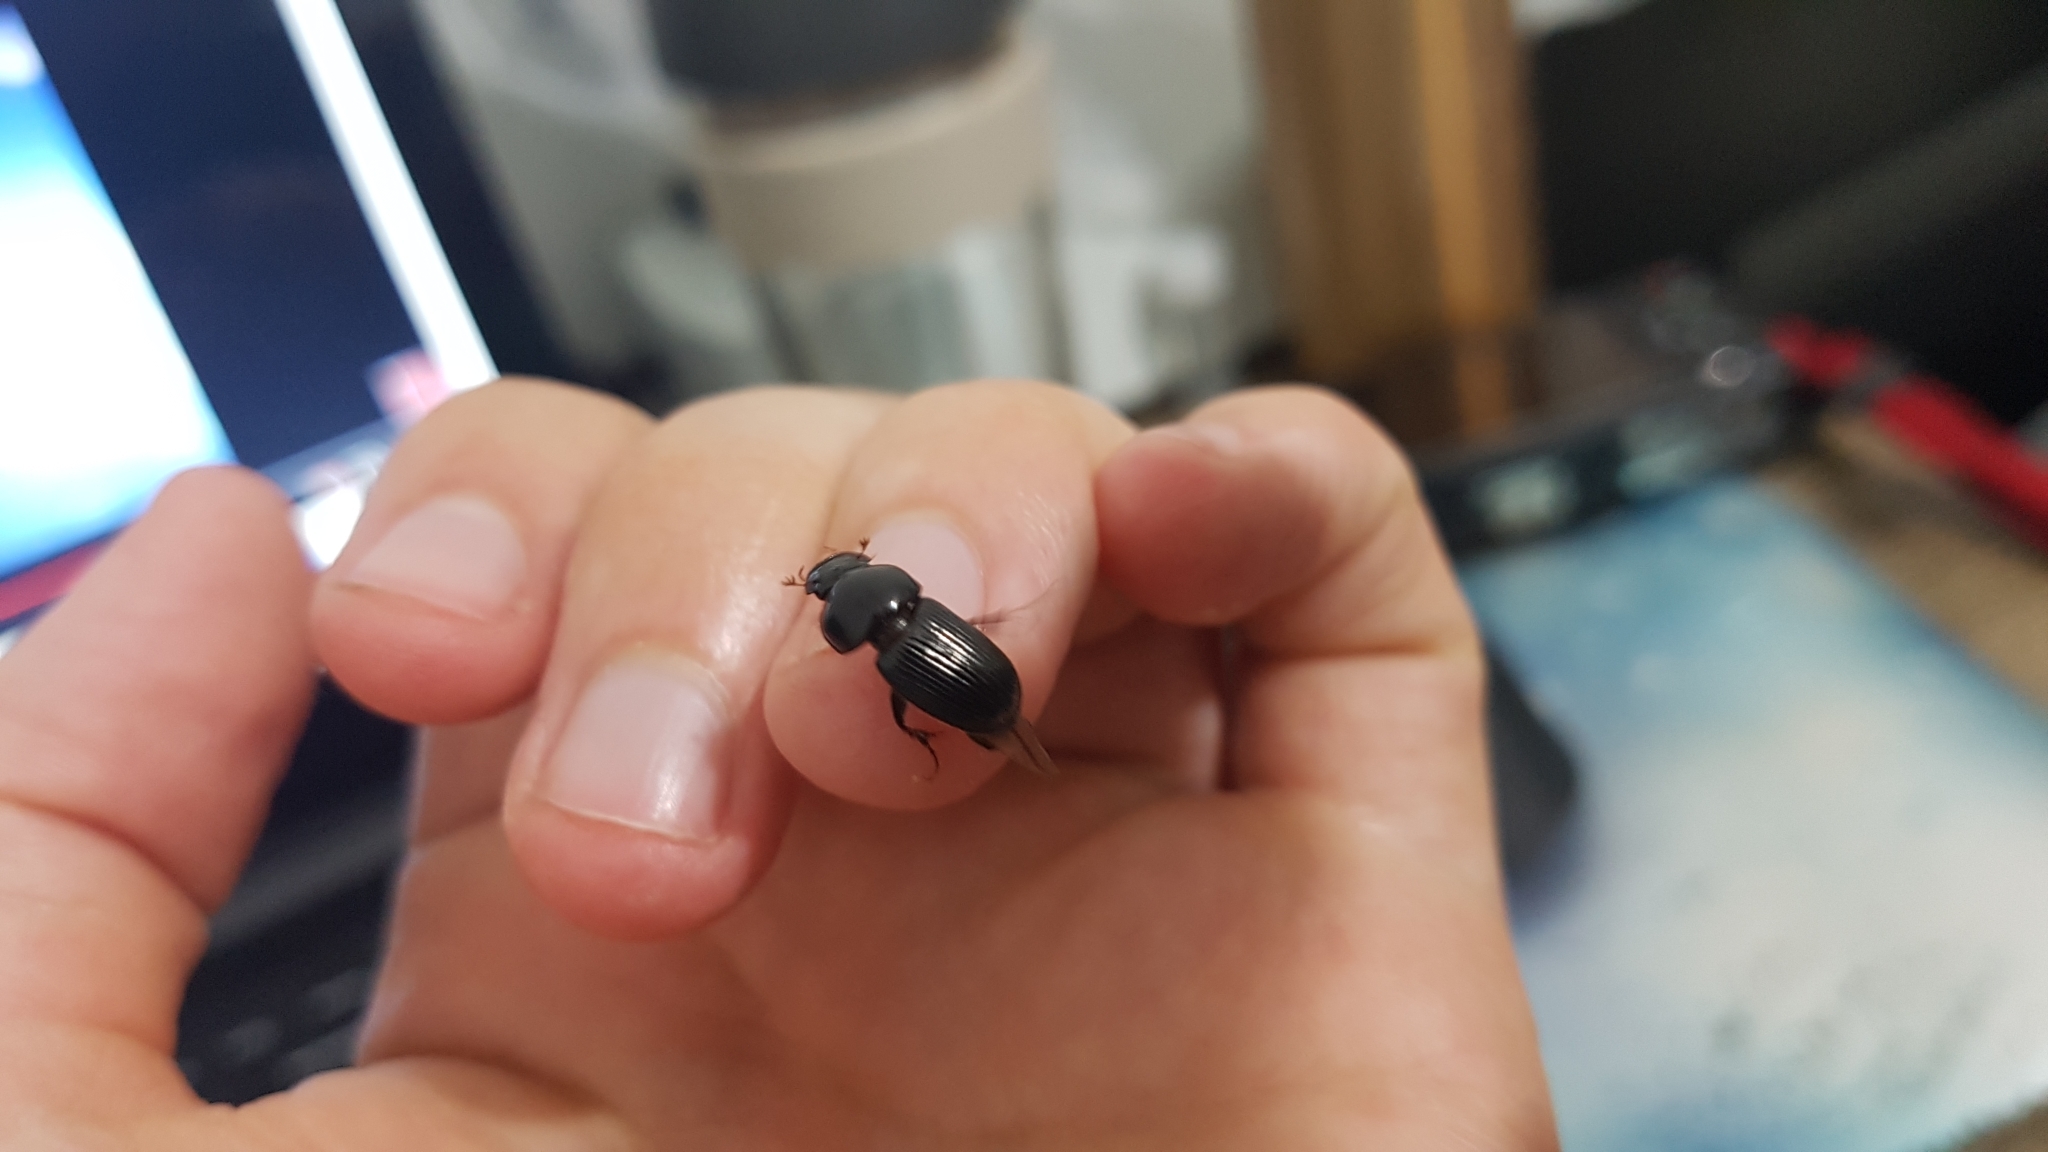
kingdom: Animalia
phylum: Arthropoda
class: Insecta
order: Coleoptera
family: Scarabaeidae
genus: Acrossidius
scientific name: Acrossidius tasmaniae
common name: Black-headed pasture cockchafer
